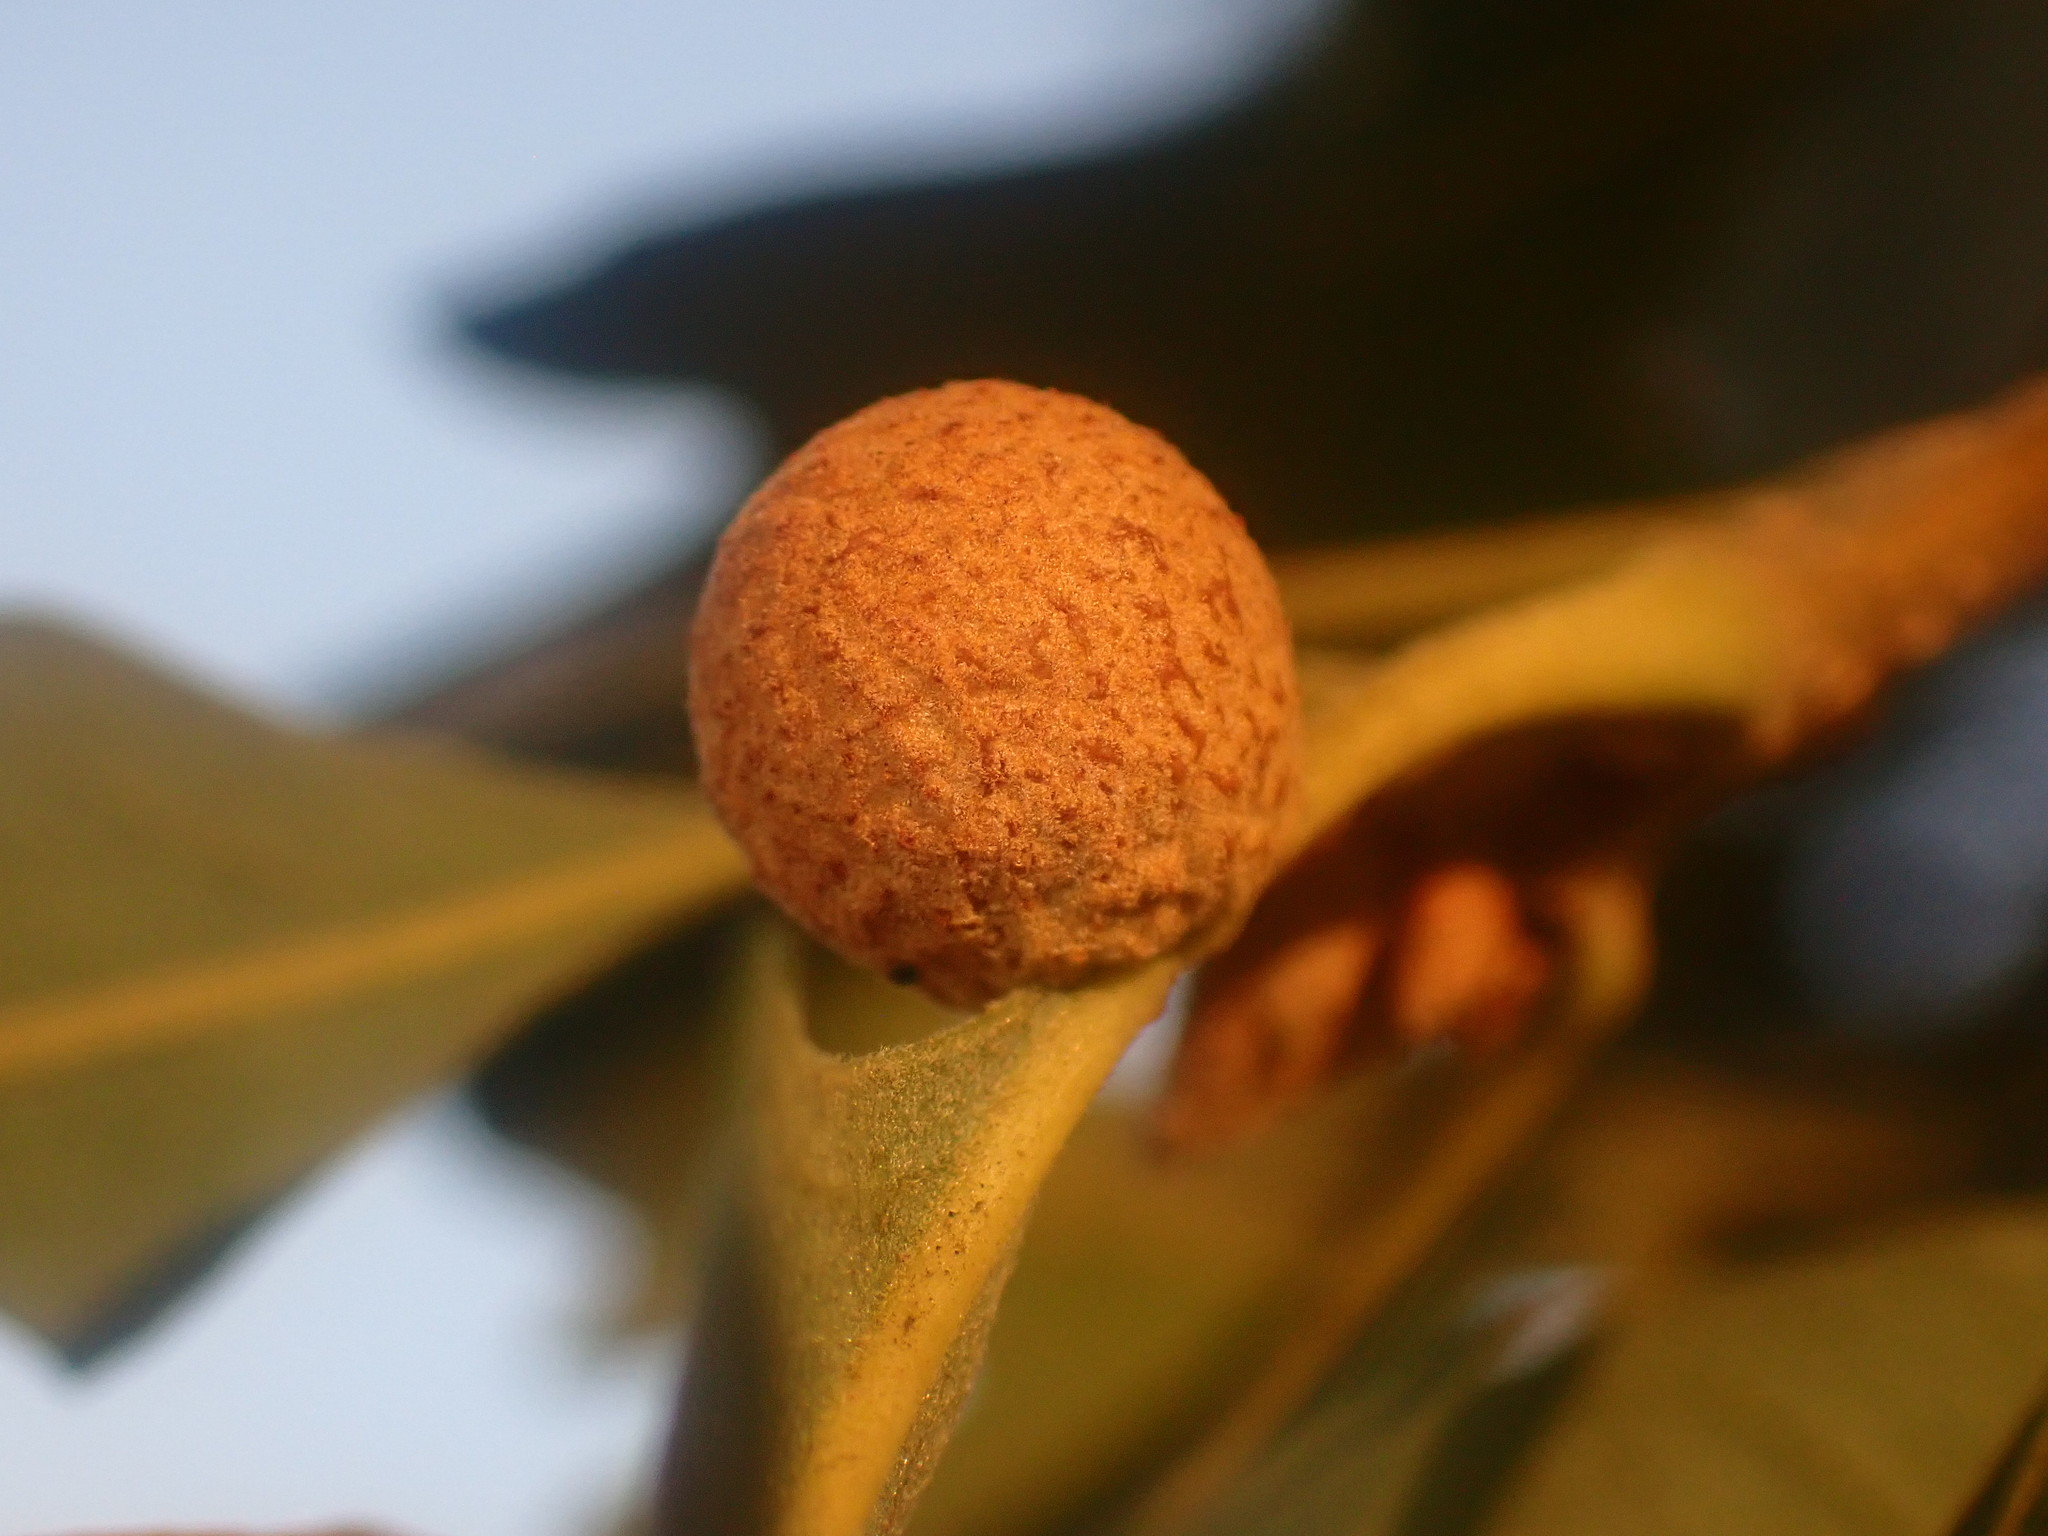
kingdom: Animalia
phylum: Arthropoda
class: Insecta
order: Hymenoptera
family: Cynipidae
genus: Cynips
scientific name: Cynips conspicua
